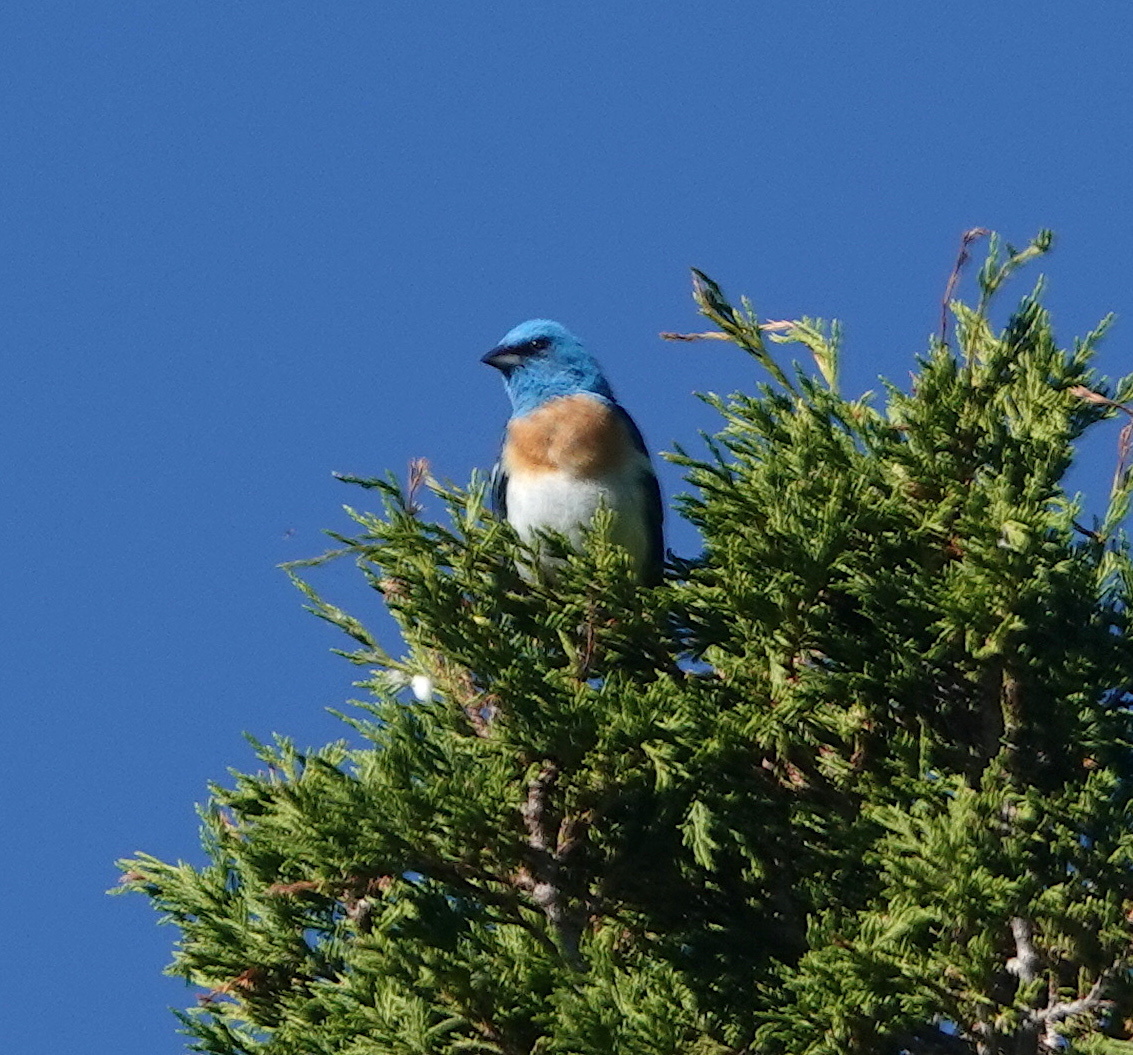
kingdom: Animalia
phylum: Chordata
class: Aves
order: Passeriformes
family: Cardinalidae
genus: Passerina
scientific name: Passerina amoena
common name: Lazuli bunting
